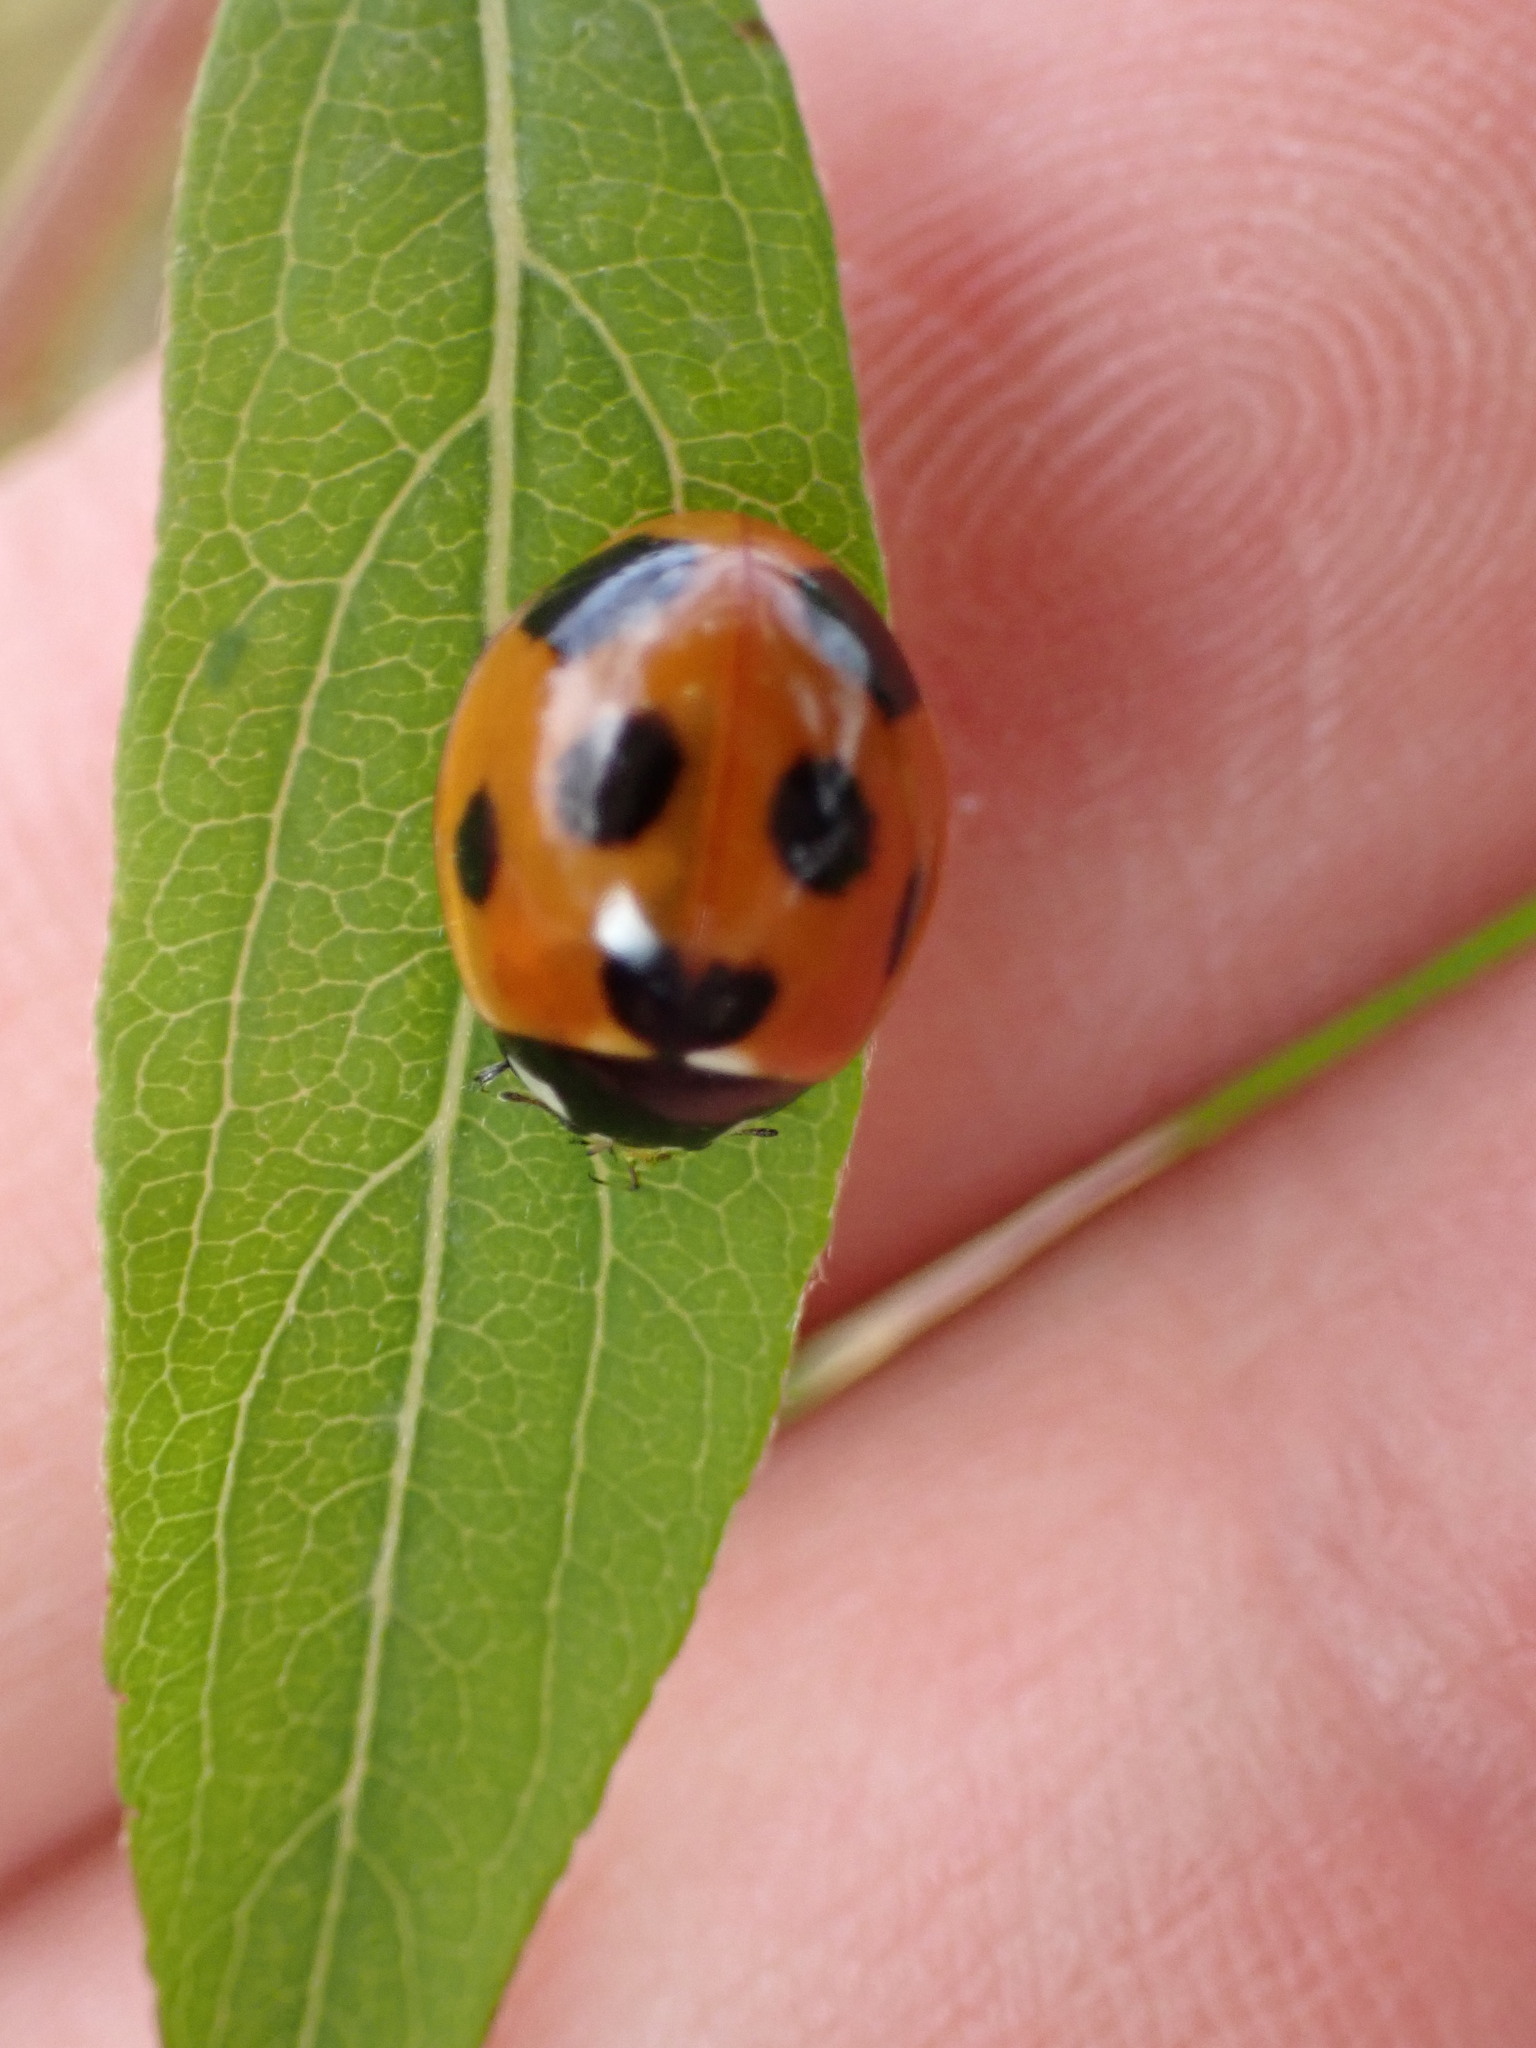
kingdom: Animalia
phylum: Arthropoda
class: Insecta
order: Coleoptera
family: Coccinellidae
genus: Coccinella
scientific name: Coccinella septempunctata
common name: Sevenspotted lady beetle
